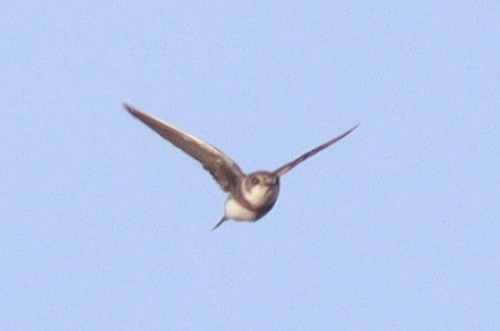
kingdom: Animalia
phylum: Chordata
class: Aves
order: Passeriformes
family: Hirundinidae
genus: Riparia
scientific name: Riparia riparia
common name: Sand martin
